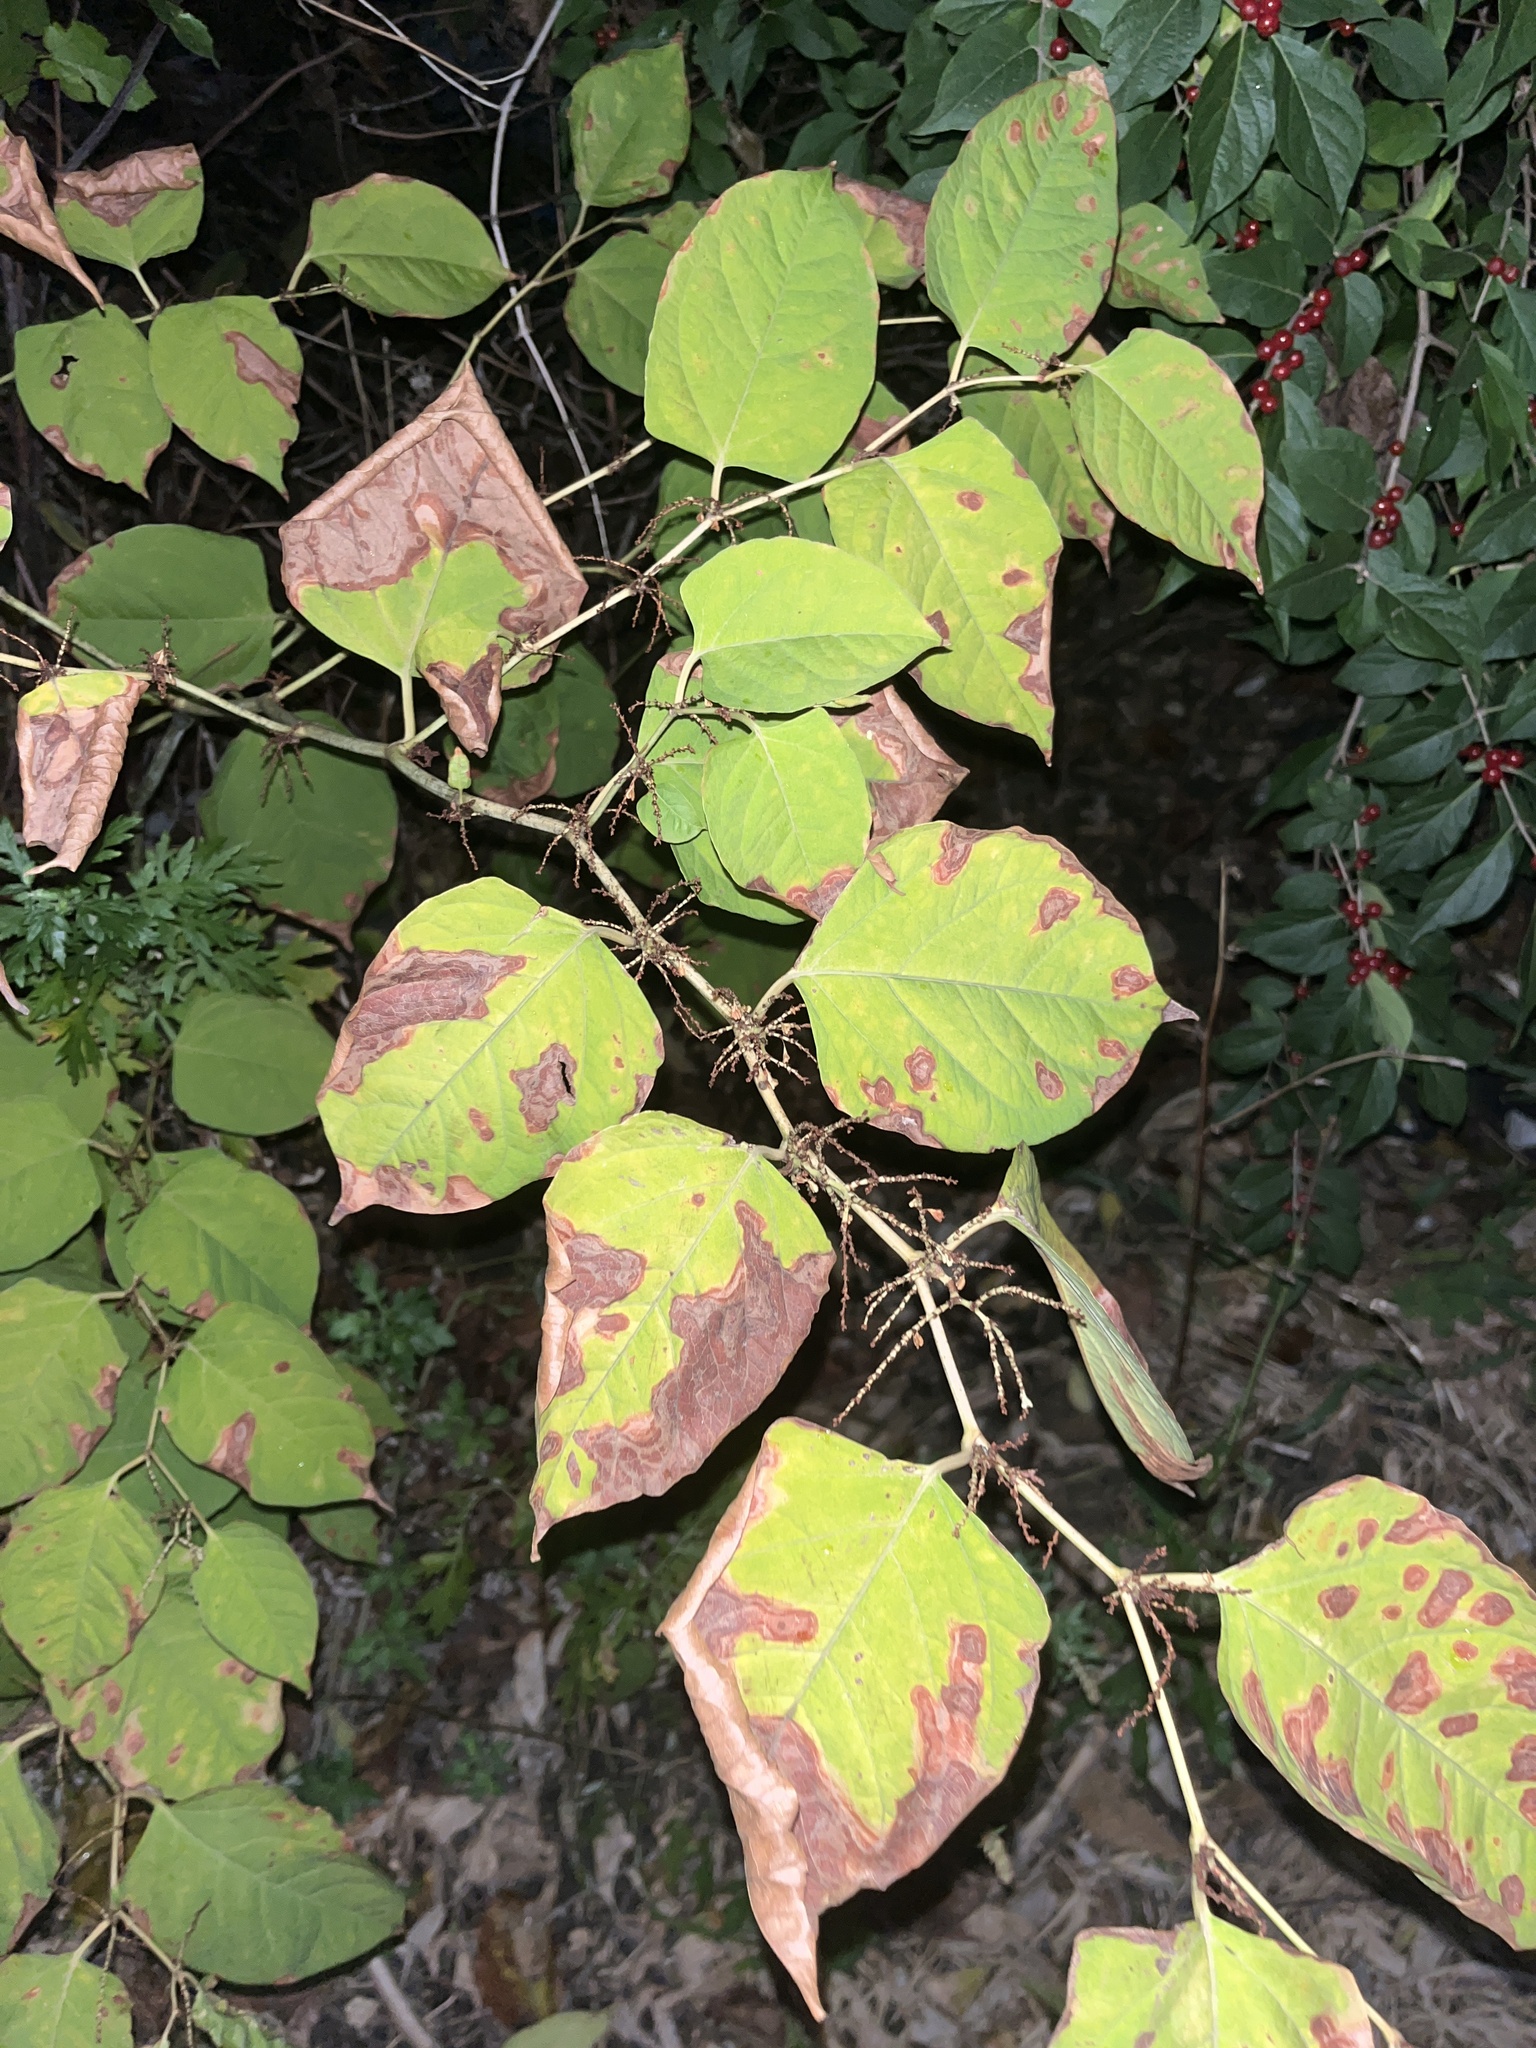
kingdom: Plantae
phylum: Tracheophyta
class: Magnoliopsida
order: Caryophyllales
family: Polygonaceae
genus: Reynoutria
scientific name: Reynoutria japonica
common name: Japanese knotweed
